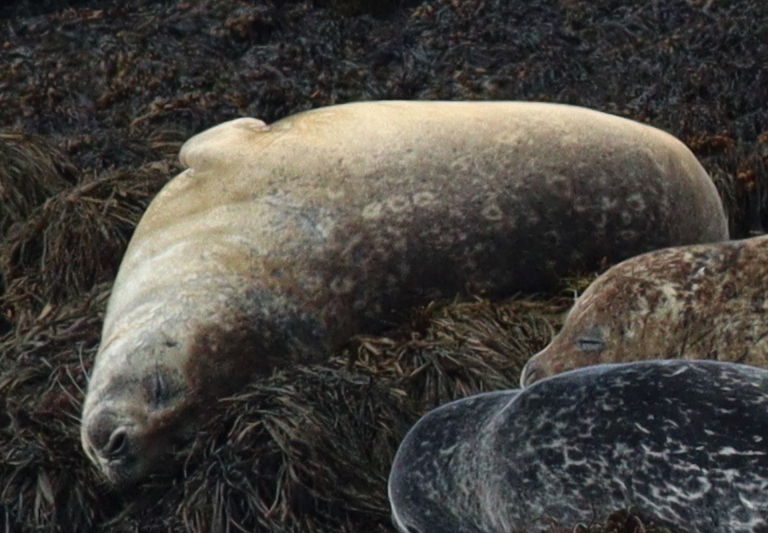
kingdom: Animalia
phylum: Chordata
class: Mammalia
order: Carnivora
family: Phocidae
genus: Phoca
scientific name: Phoca vitulina
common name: Harbor seal
